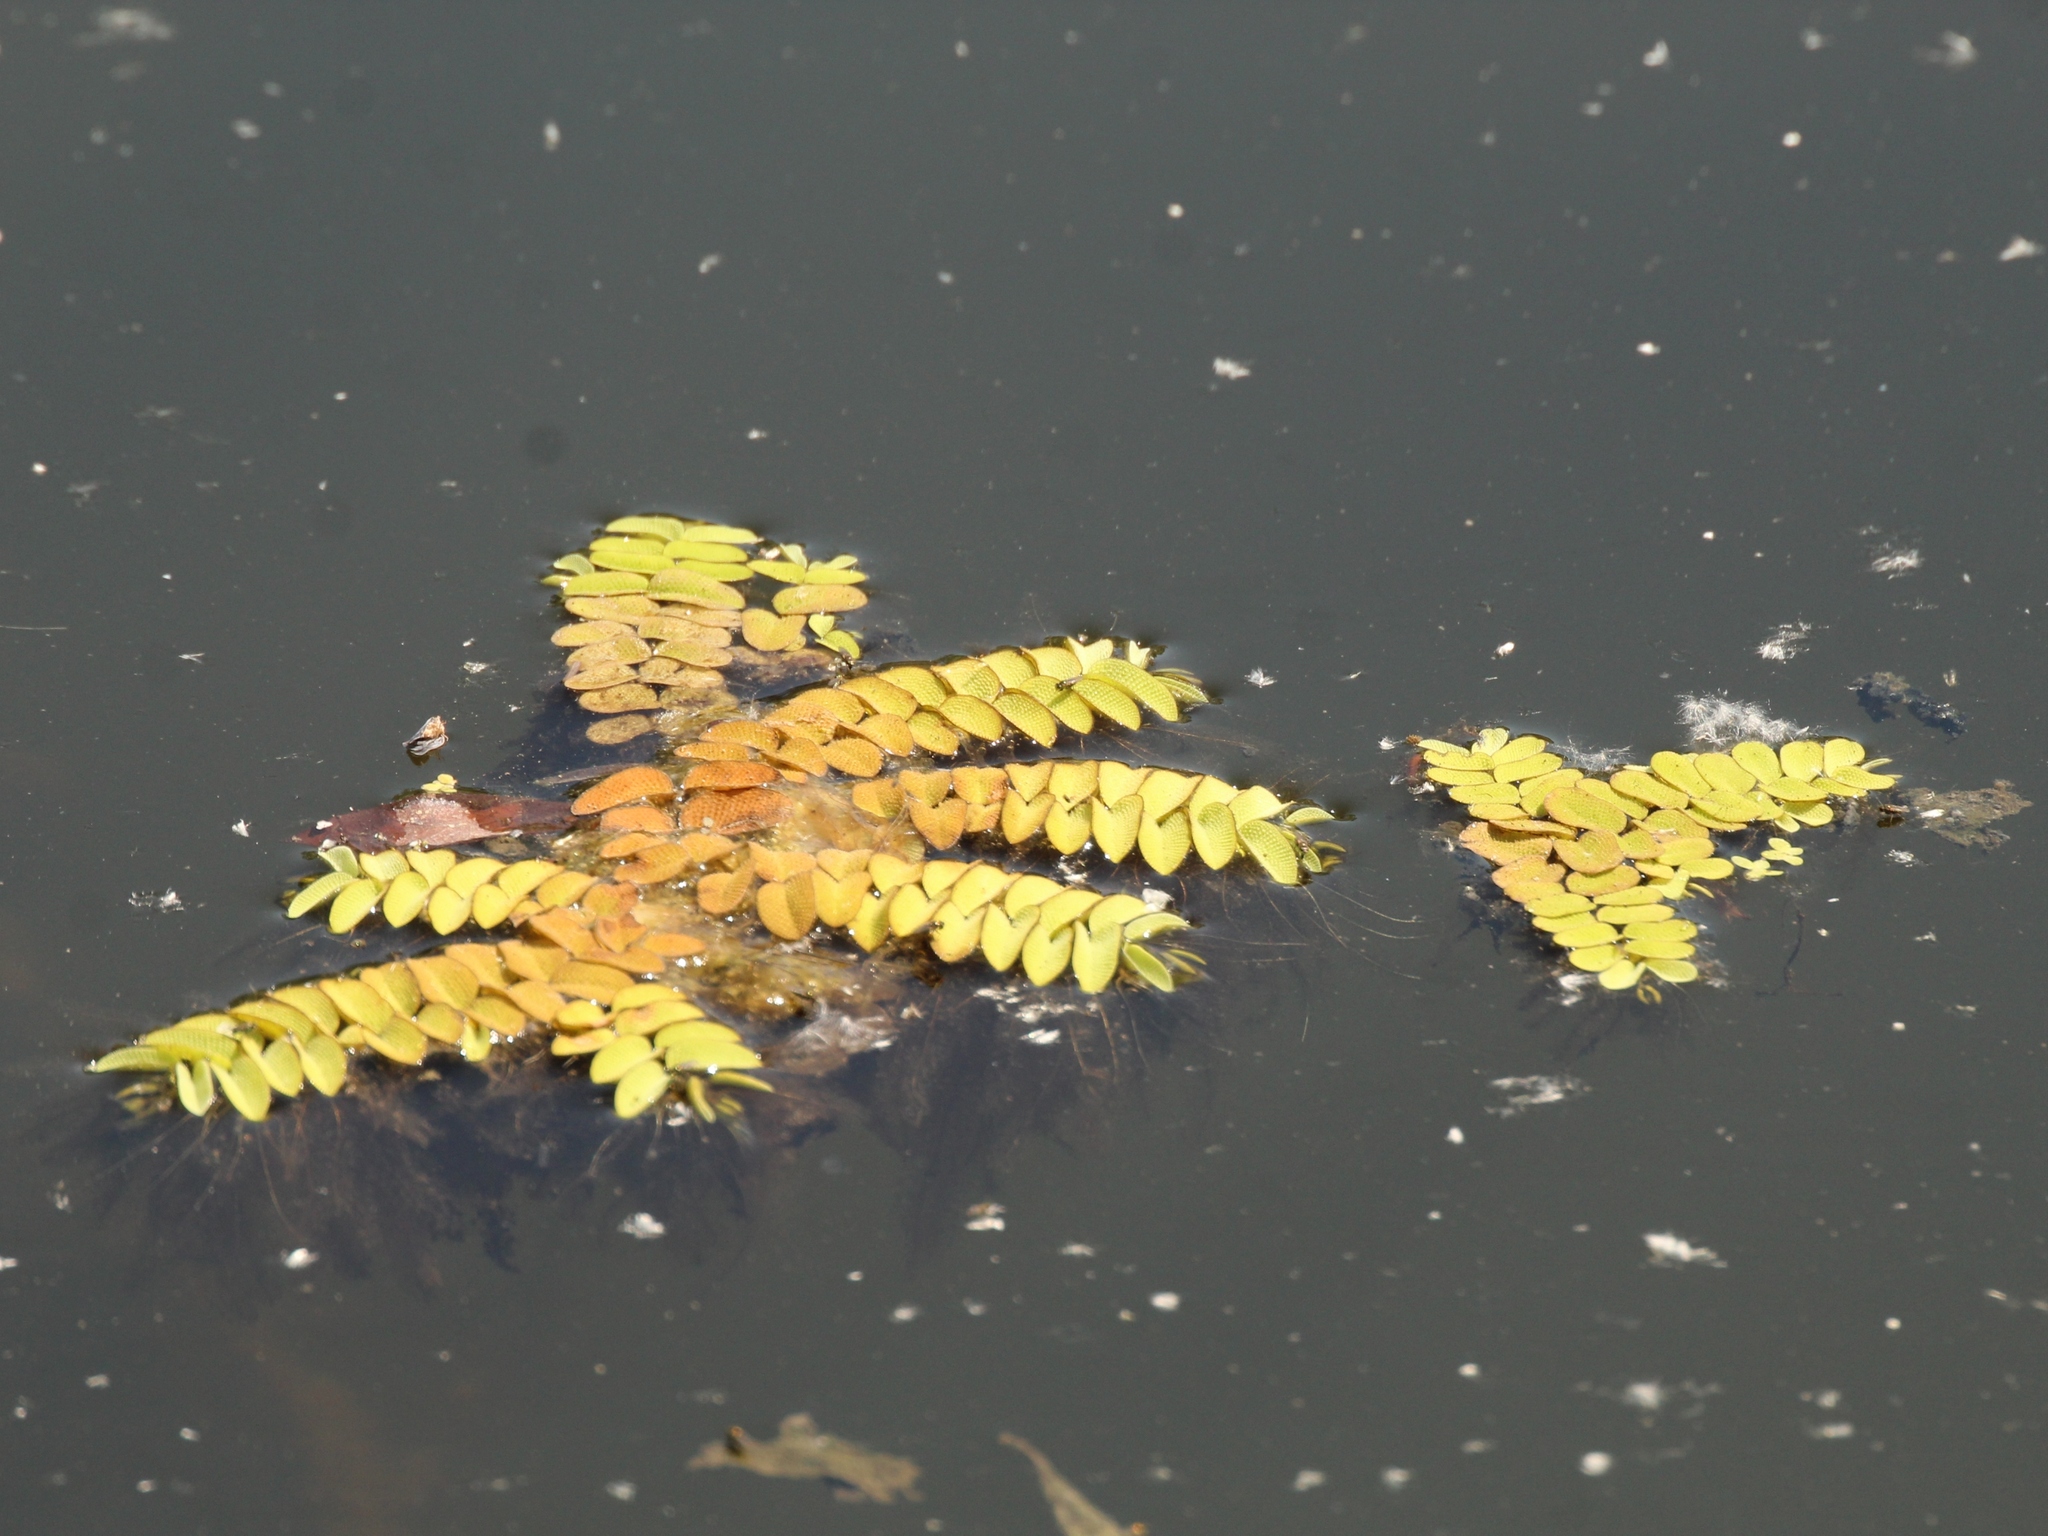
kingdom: Plantae
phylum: Tracheophyta
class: Polypodiopsida
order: Salviniales
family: Salviniaceae
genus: Salvinia
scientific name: Salvinia natans
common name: Floating fern
